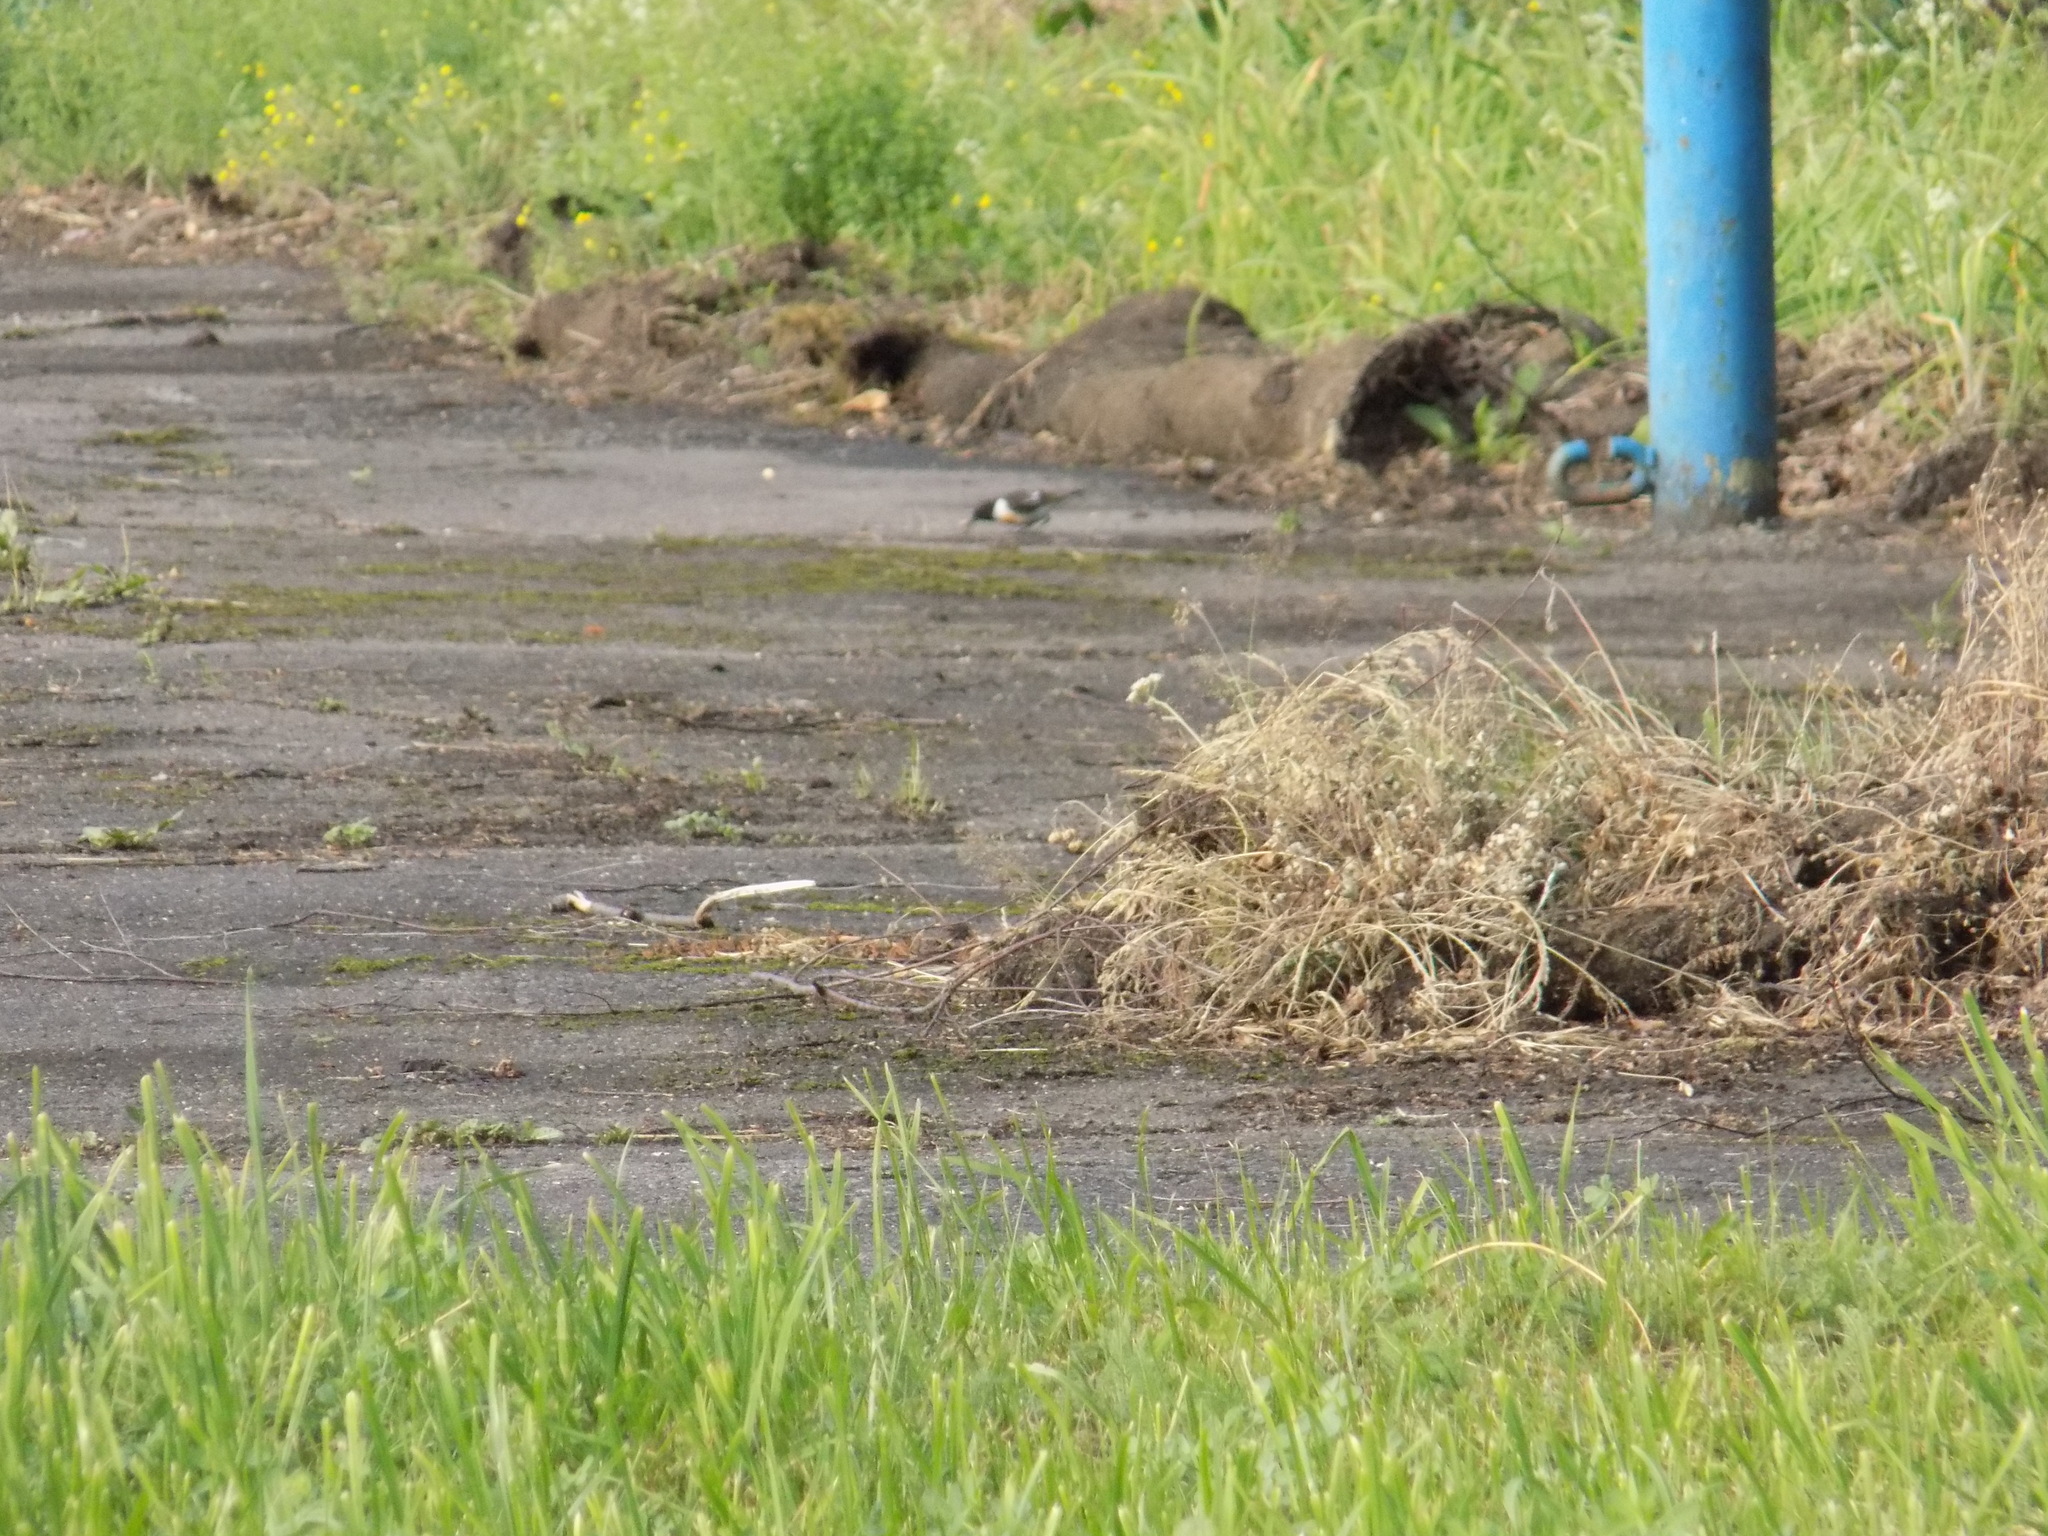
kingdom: Animalia
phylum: Chordata
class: Aves
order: Passeriformes
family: Muscicapidae
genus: Saxicola
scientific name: Saxicola maurus
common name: Siberian stonechat
